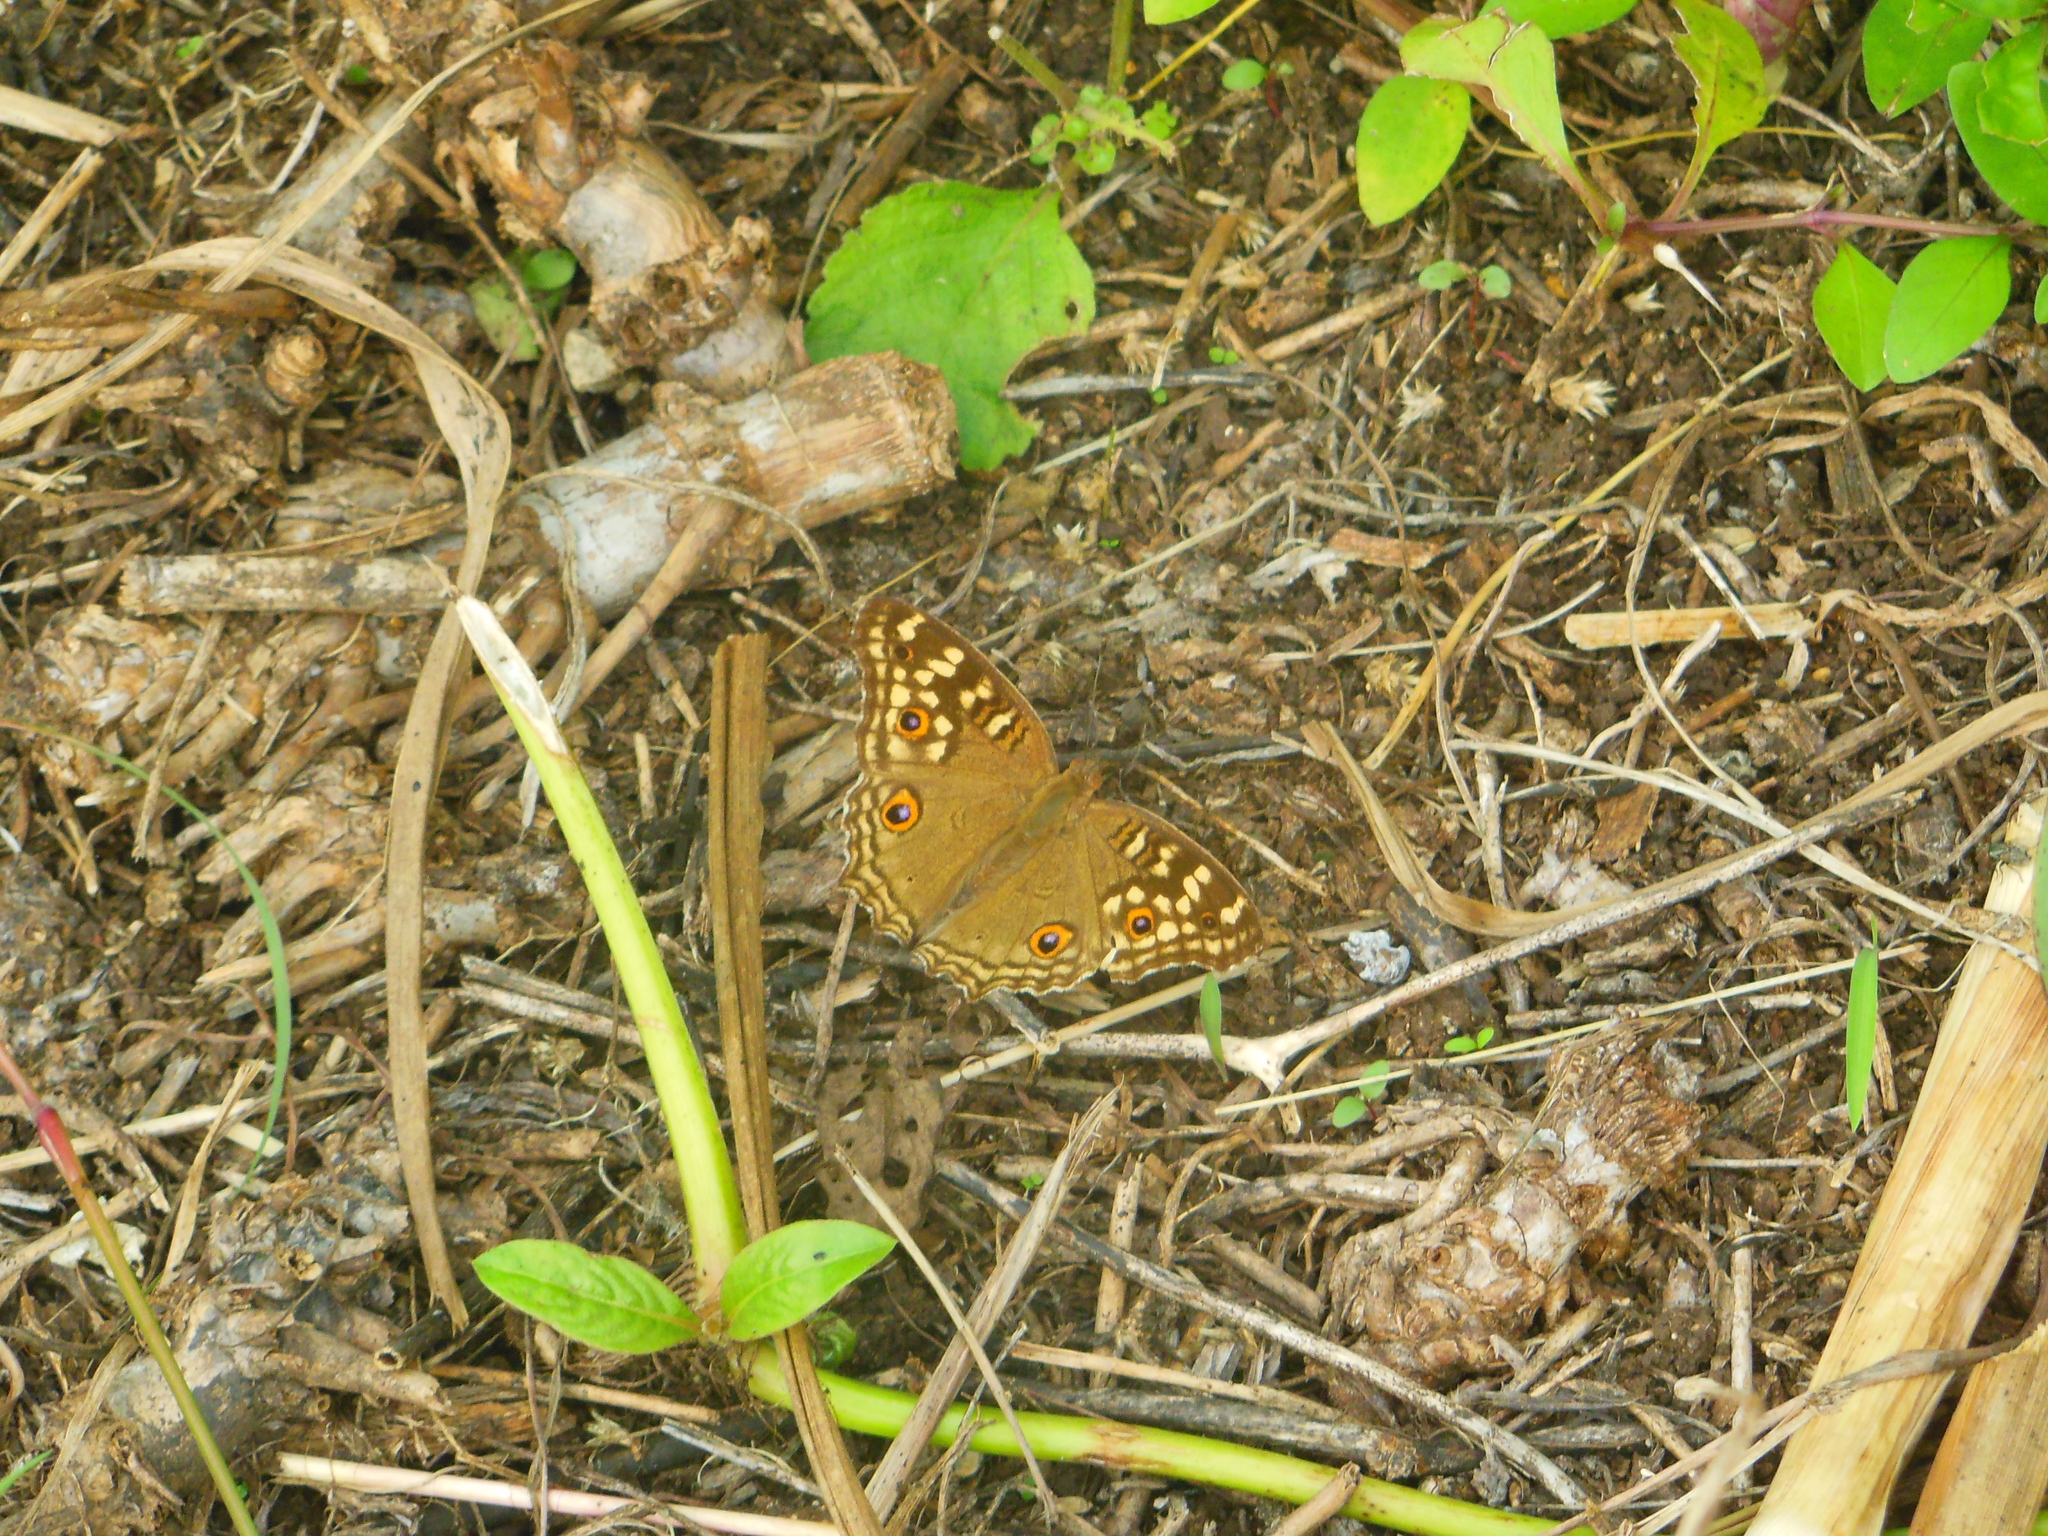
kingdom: Animalia
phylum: Arthropoda
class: Insecta
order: Lepidoptera
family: Nymphalidae
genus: Junonia
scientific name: Junonia lemonias
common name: Lemon pansy
